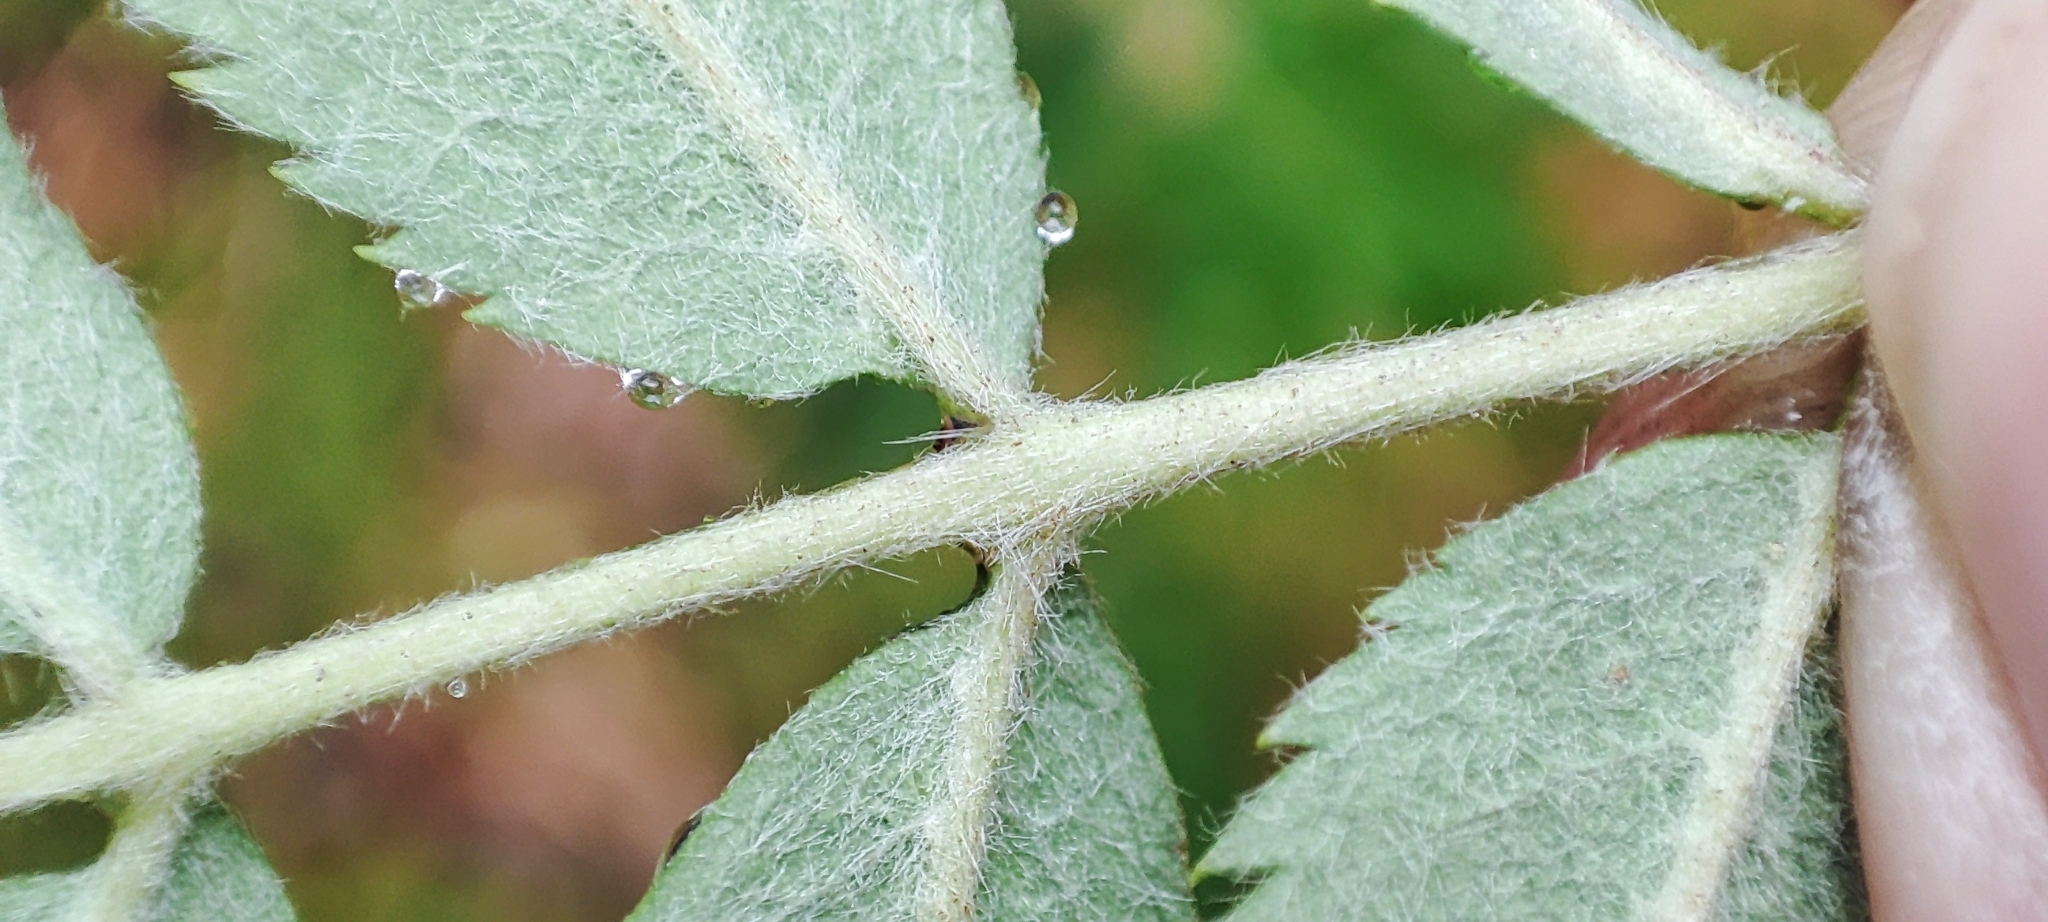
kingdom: Plantae
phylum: Tracheophyta
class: Magnoliopsida
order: Rosales
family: Rosaceae
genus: Sorbus
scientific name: Sorbus aucuparia
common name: Rowan
